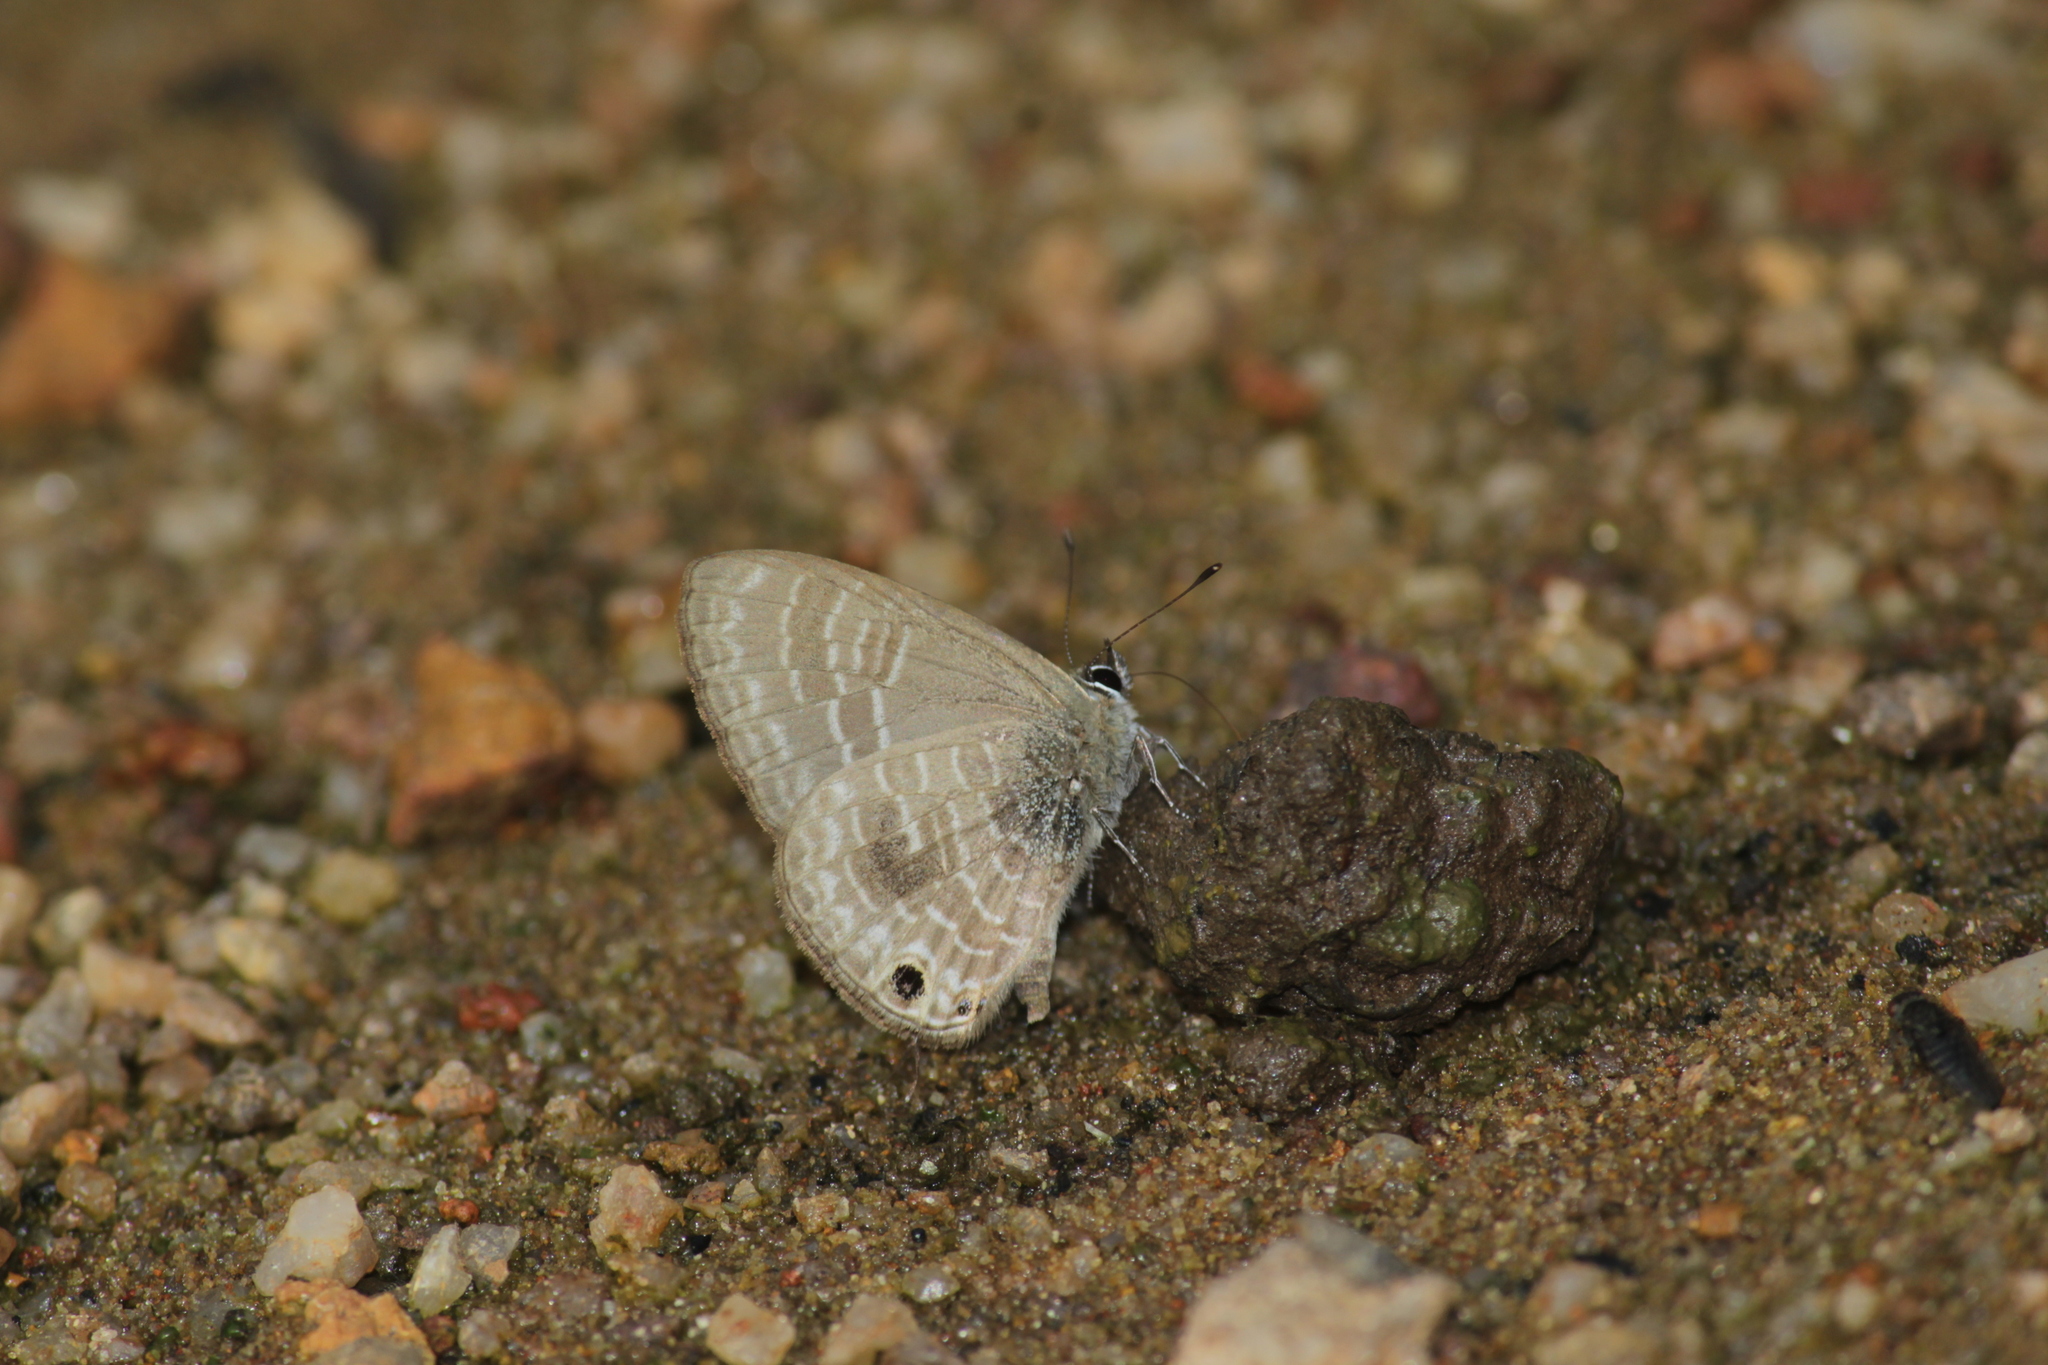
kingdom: Animalia
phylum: Arthropoda
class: Insecta
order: Lepidoptera
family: Lycaenidae
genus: Nacaduba
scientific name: Nacaduba hermus
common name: Pale four-line blue
